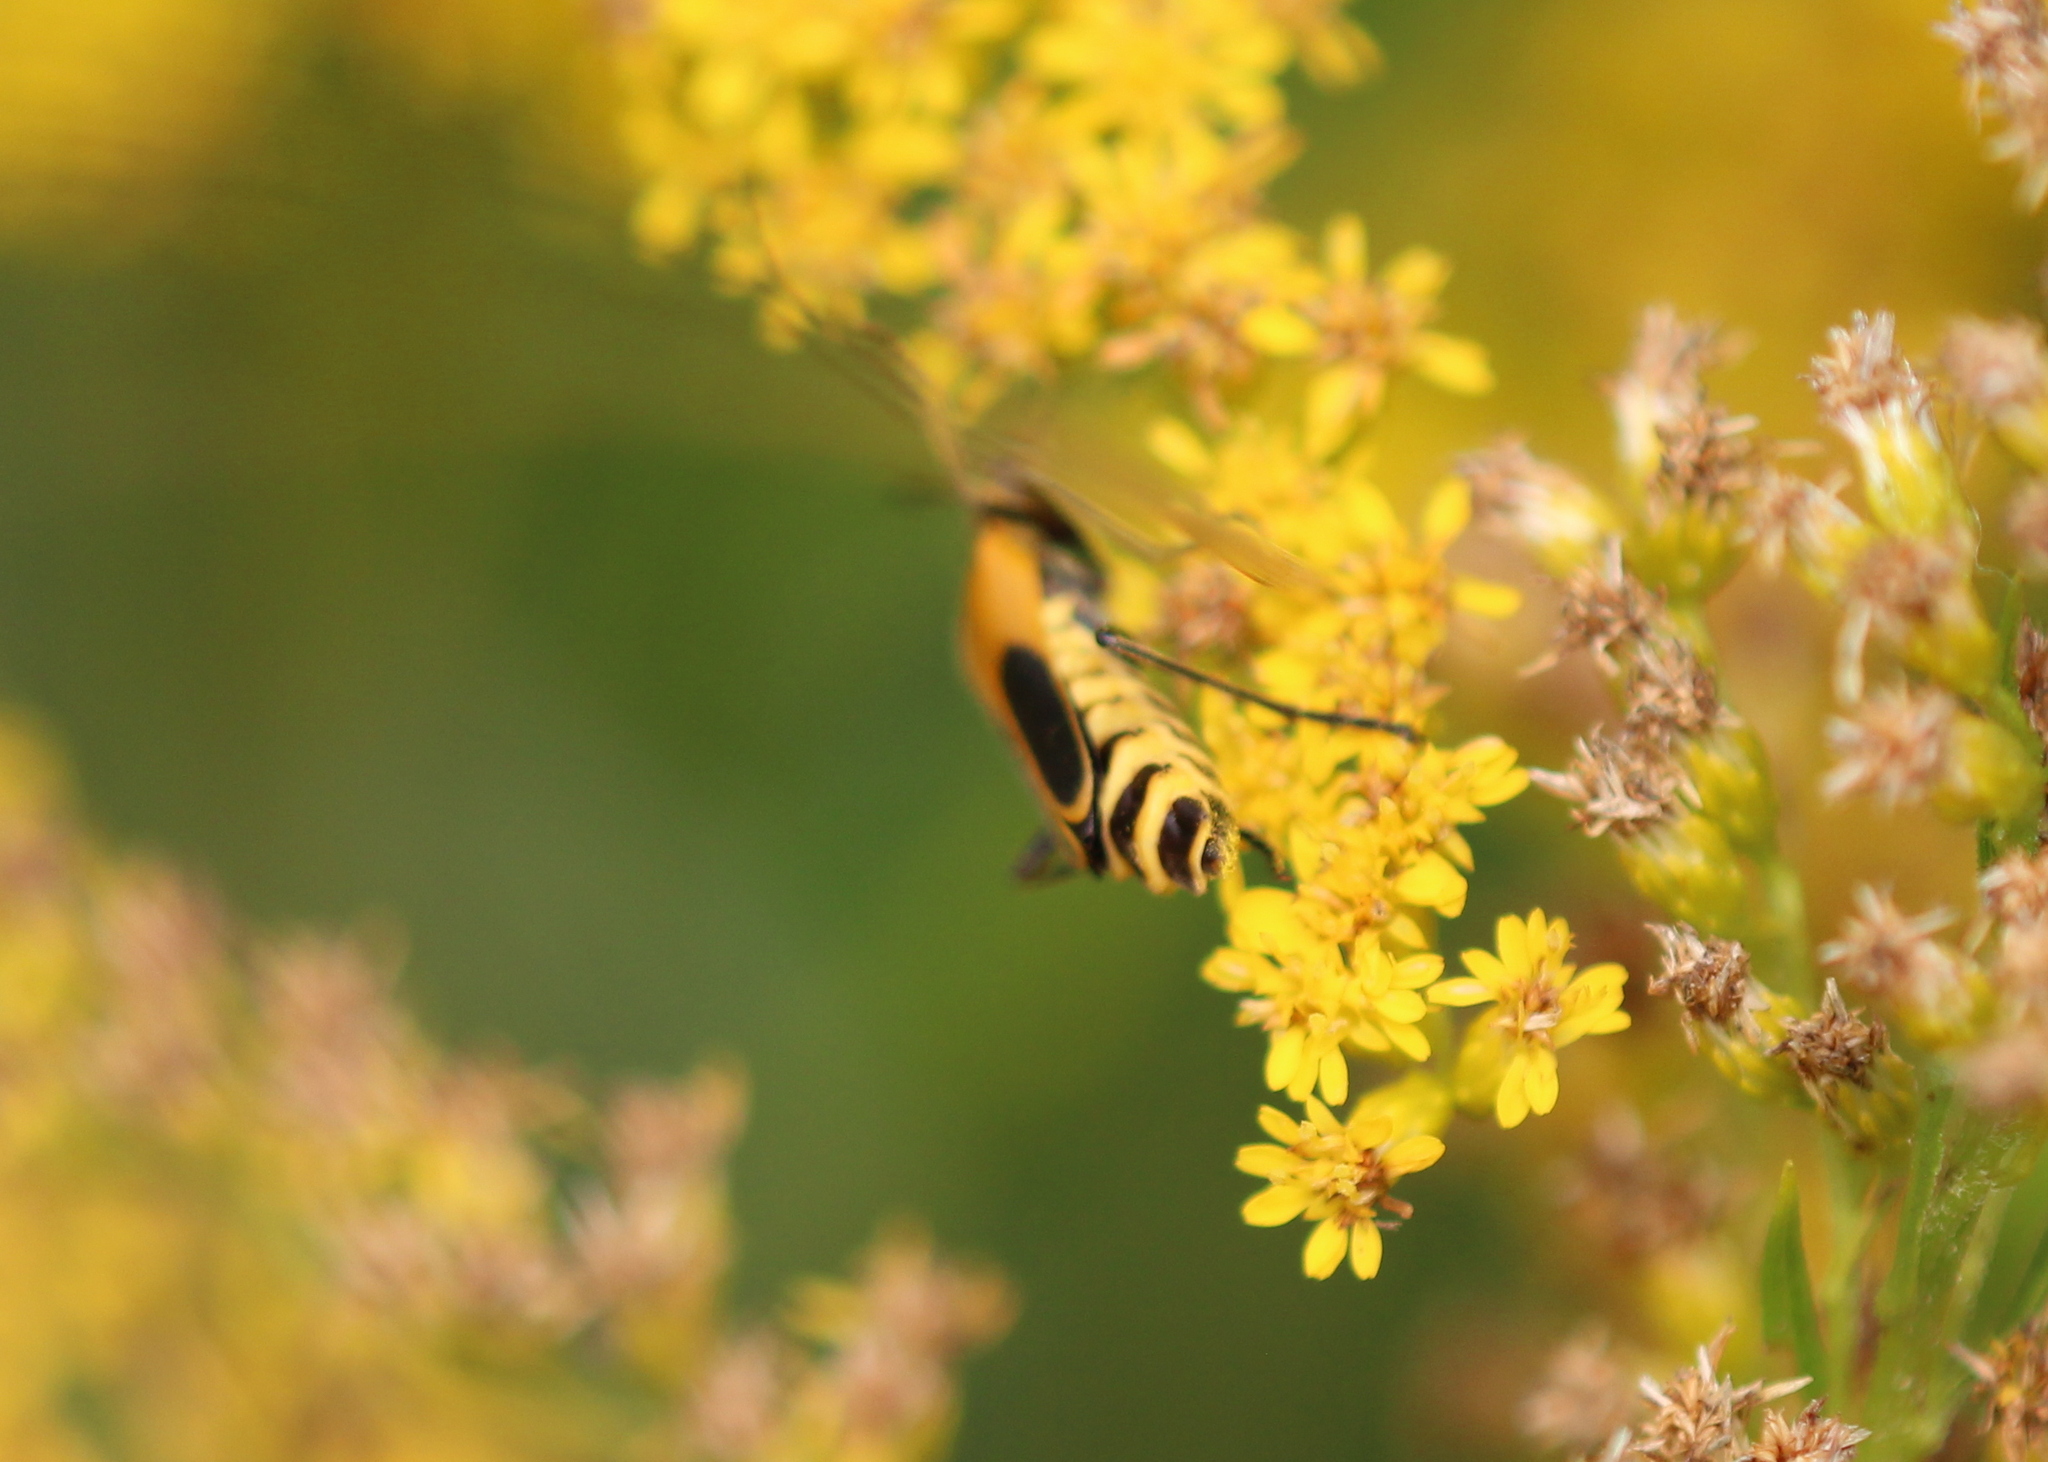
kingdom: Animalia
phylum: Arthropoda
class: Insecta
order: Coleoptera
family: Cantharidae
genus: Chauliognathus
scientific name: Chauliognathus pensylvanicus
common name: Goldenrod soldier beetle
